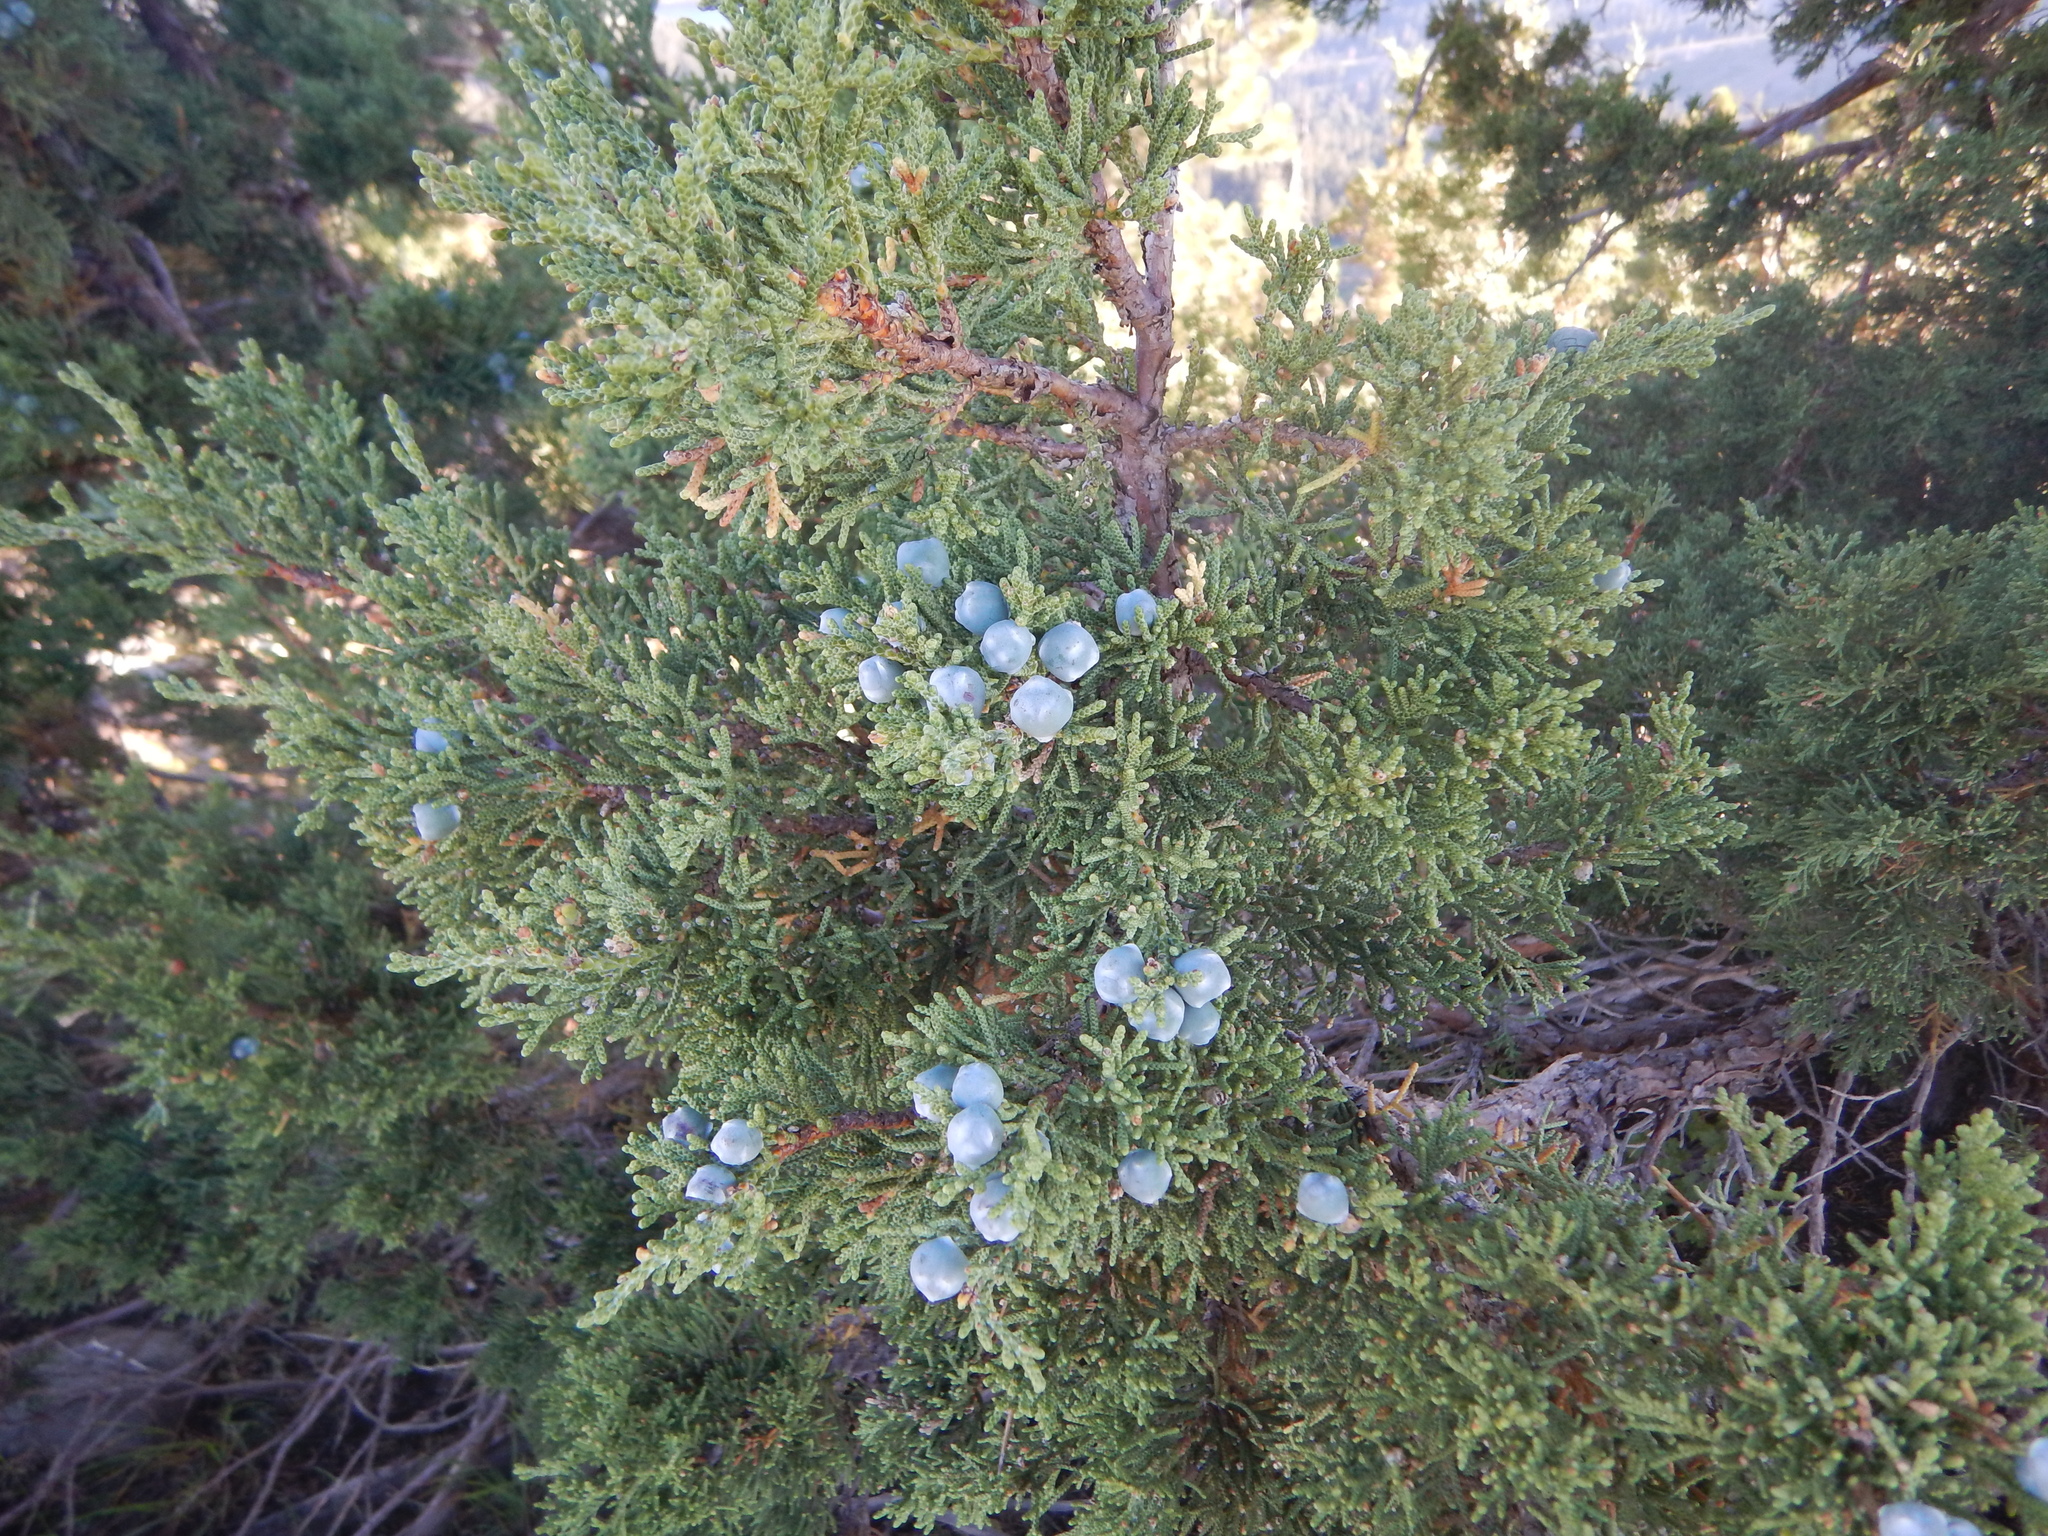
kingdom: Plantae
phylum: Tracheophyta
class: Pinopsida
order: Pinales
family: Cupressaceae
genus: Juniperus
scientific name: Juniperus occidentalis
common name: Western juniper
